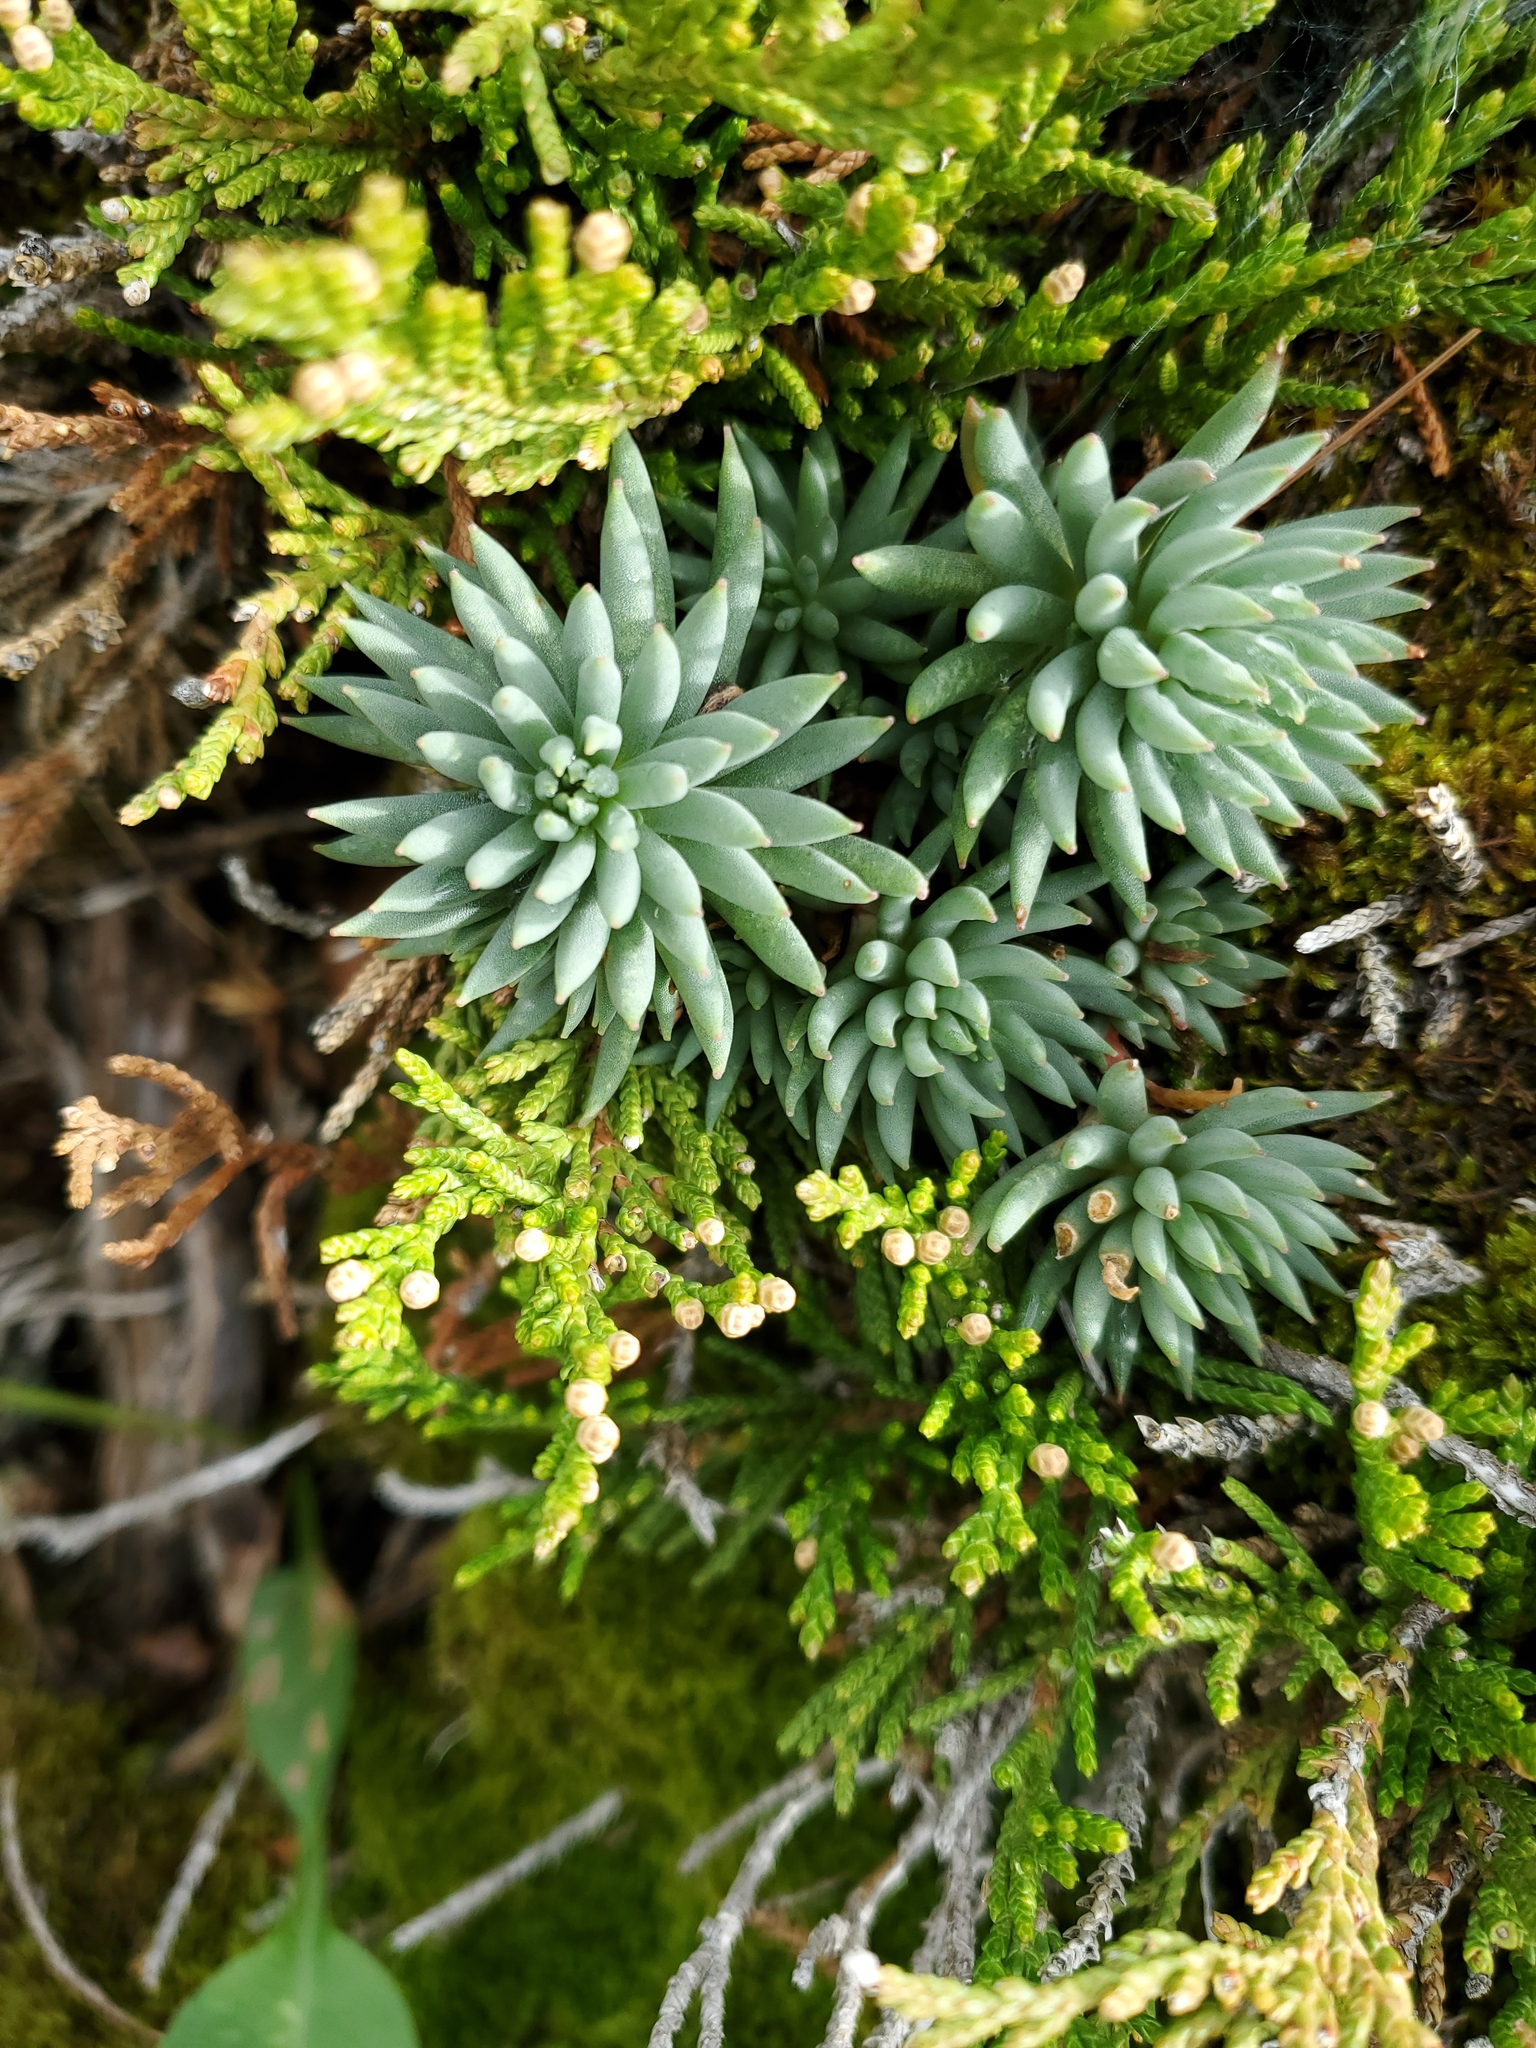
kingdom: Plantae
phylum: Tracheophyta
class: Magnoliopsida
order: Saxifragales
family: Crassulaceae
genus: Sedum
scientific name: Sedum lanceolatum
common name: Common stonecrop
